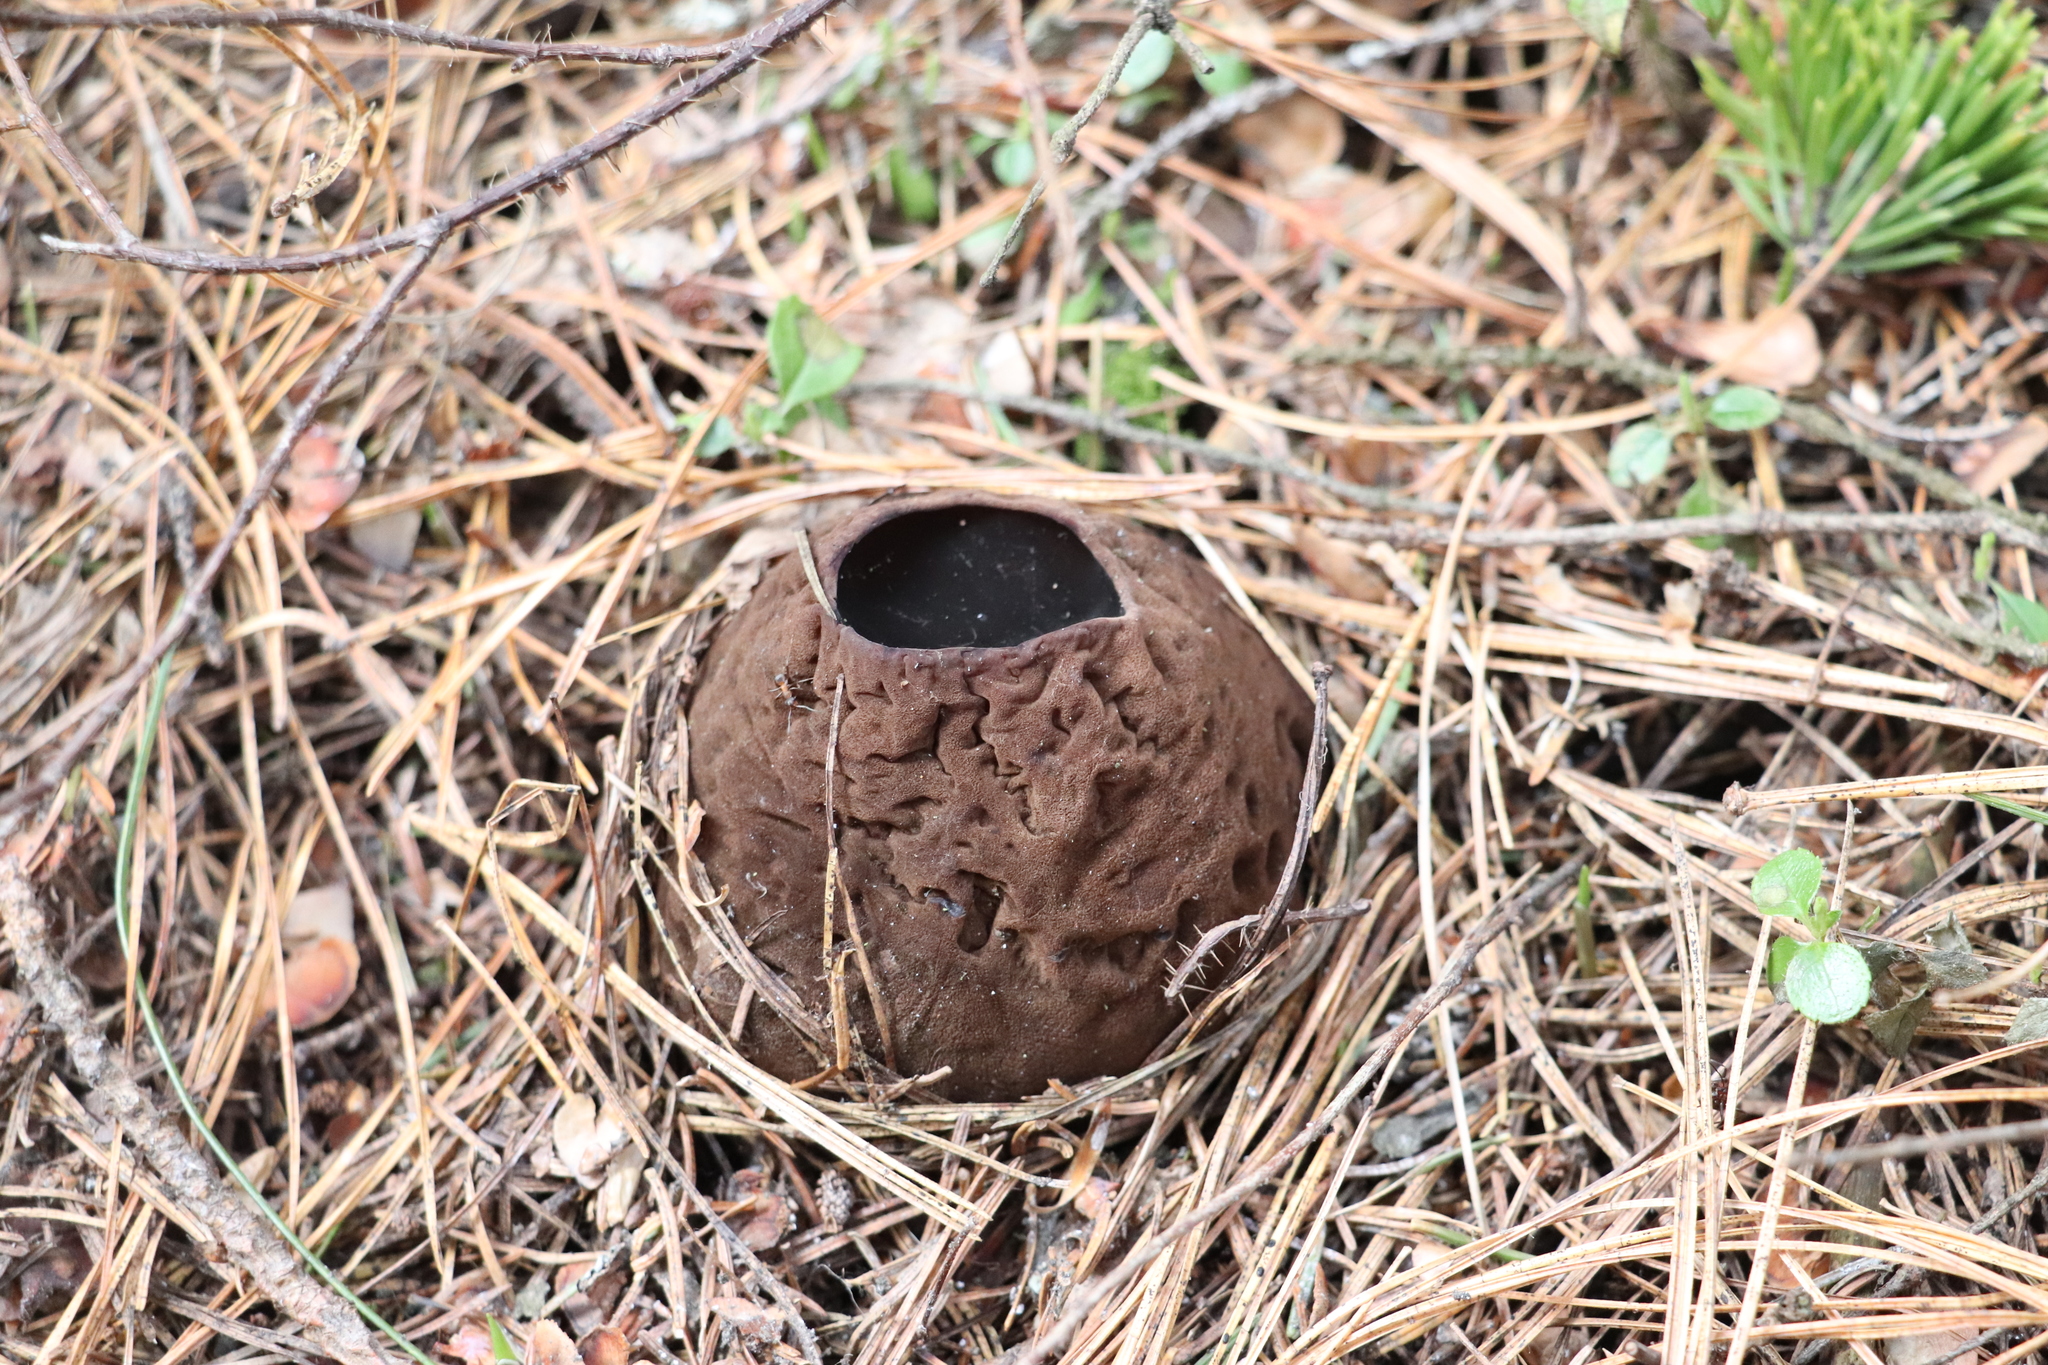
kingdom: Fungi
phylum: Ascomycota
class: Pezizomycetes
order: Pezizales
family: Sarcosomataceae
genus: Sarcosoma
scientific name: Sarcosoma globosum
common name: Charred-pancake cup
